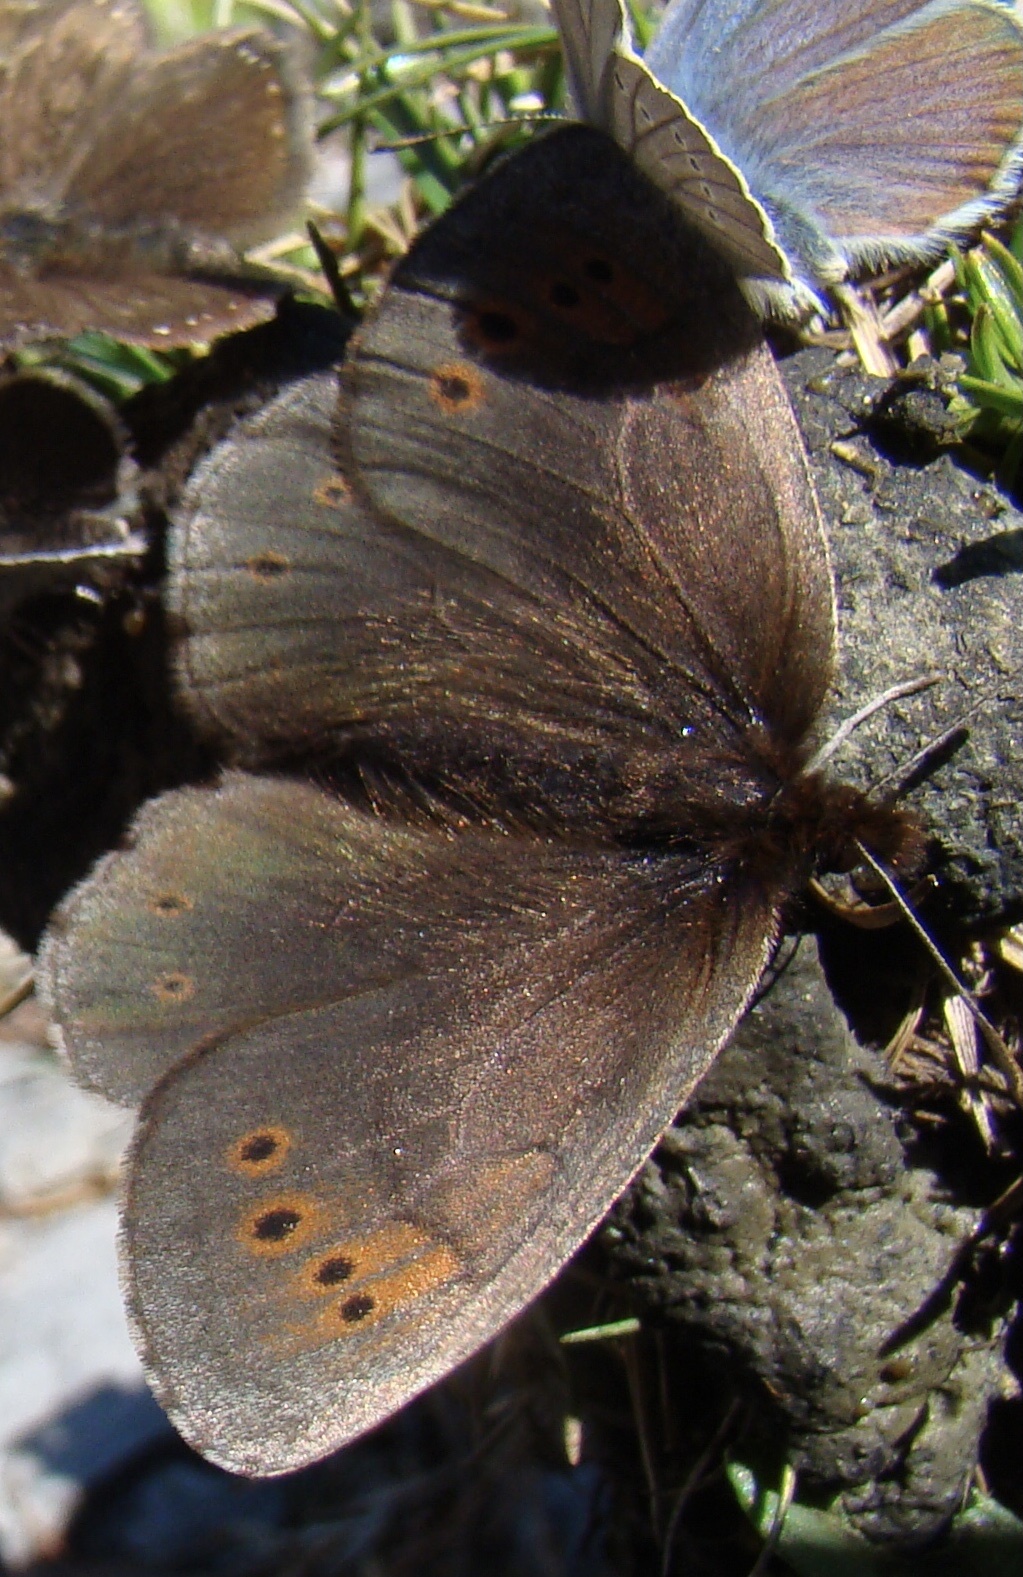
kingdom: Animalia
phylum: Arthropoda
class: Insecta
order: Lepidoptera
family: Nymphalidae
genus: Erebia
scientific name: Erebia pandrose
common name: Dewy ringlet
